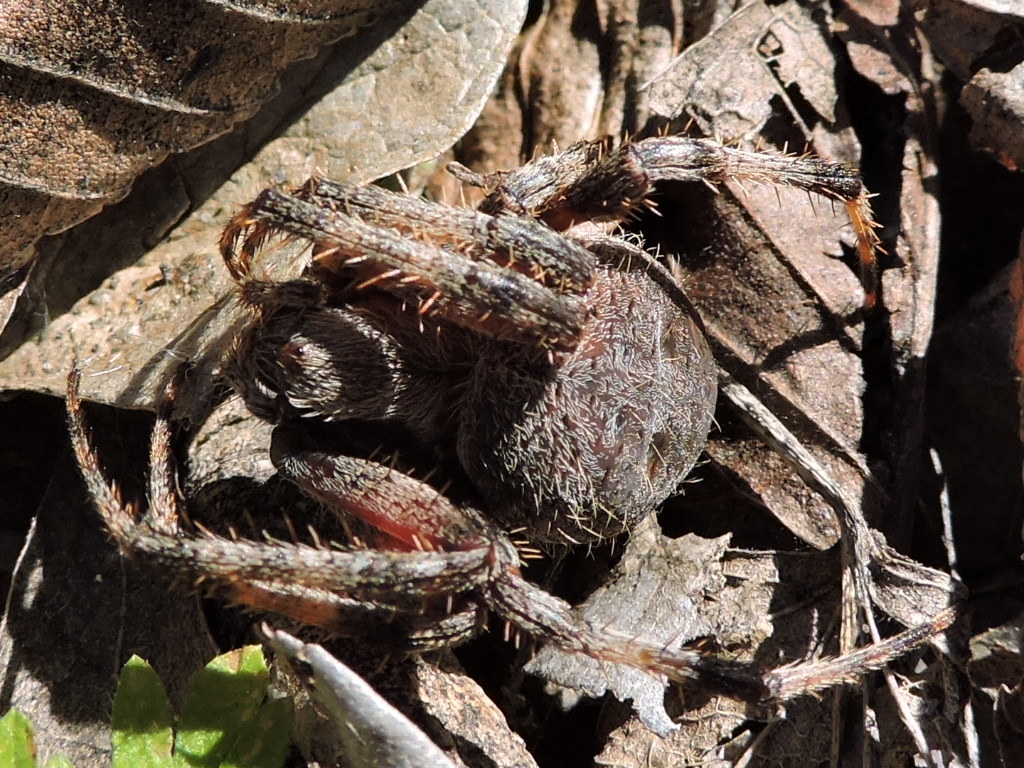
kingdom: Animalia
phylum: Arthropoda
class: Arachnida
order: Araneae
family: Araneidae
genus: Neoscona
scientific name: Neoscona crucifera
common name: Spotted orbweaver
